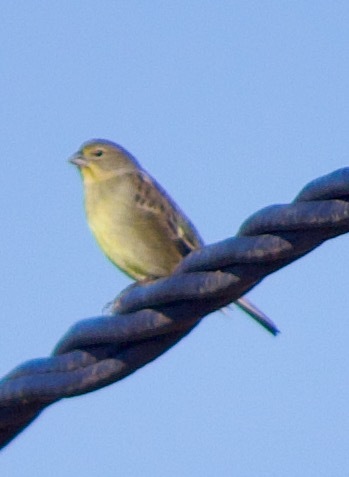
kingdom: Animalia
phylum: Chordata
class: Aves
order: Passeriformes
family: Thraupidae
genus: Sicalis
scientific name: Sicalis luteola
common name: Grassland yellow-finch
